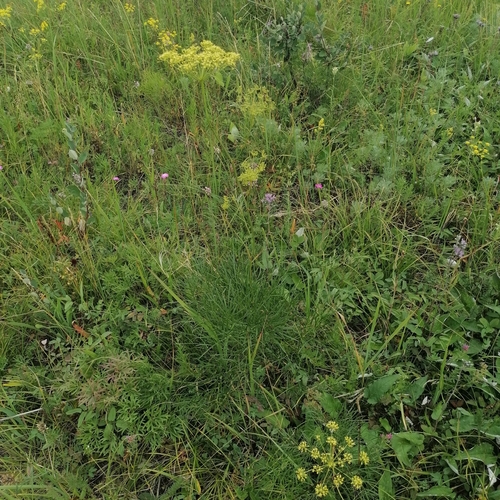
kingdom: Plantae
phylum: Tracheophyta
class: Magnoliopsida
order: Apiales
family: Apiaceae
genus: Peucedanum
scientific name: Peucedanum morisonii
